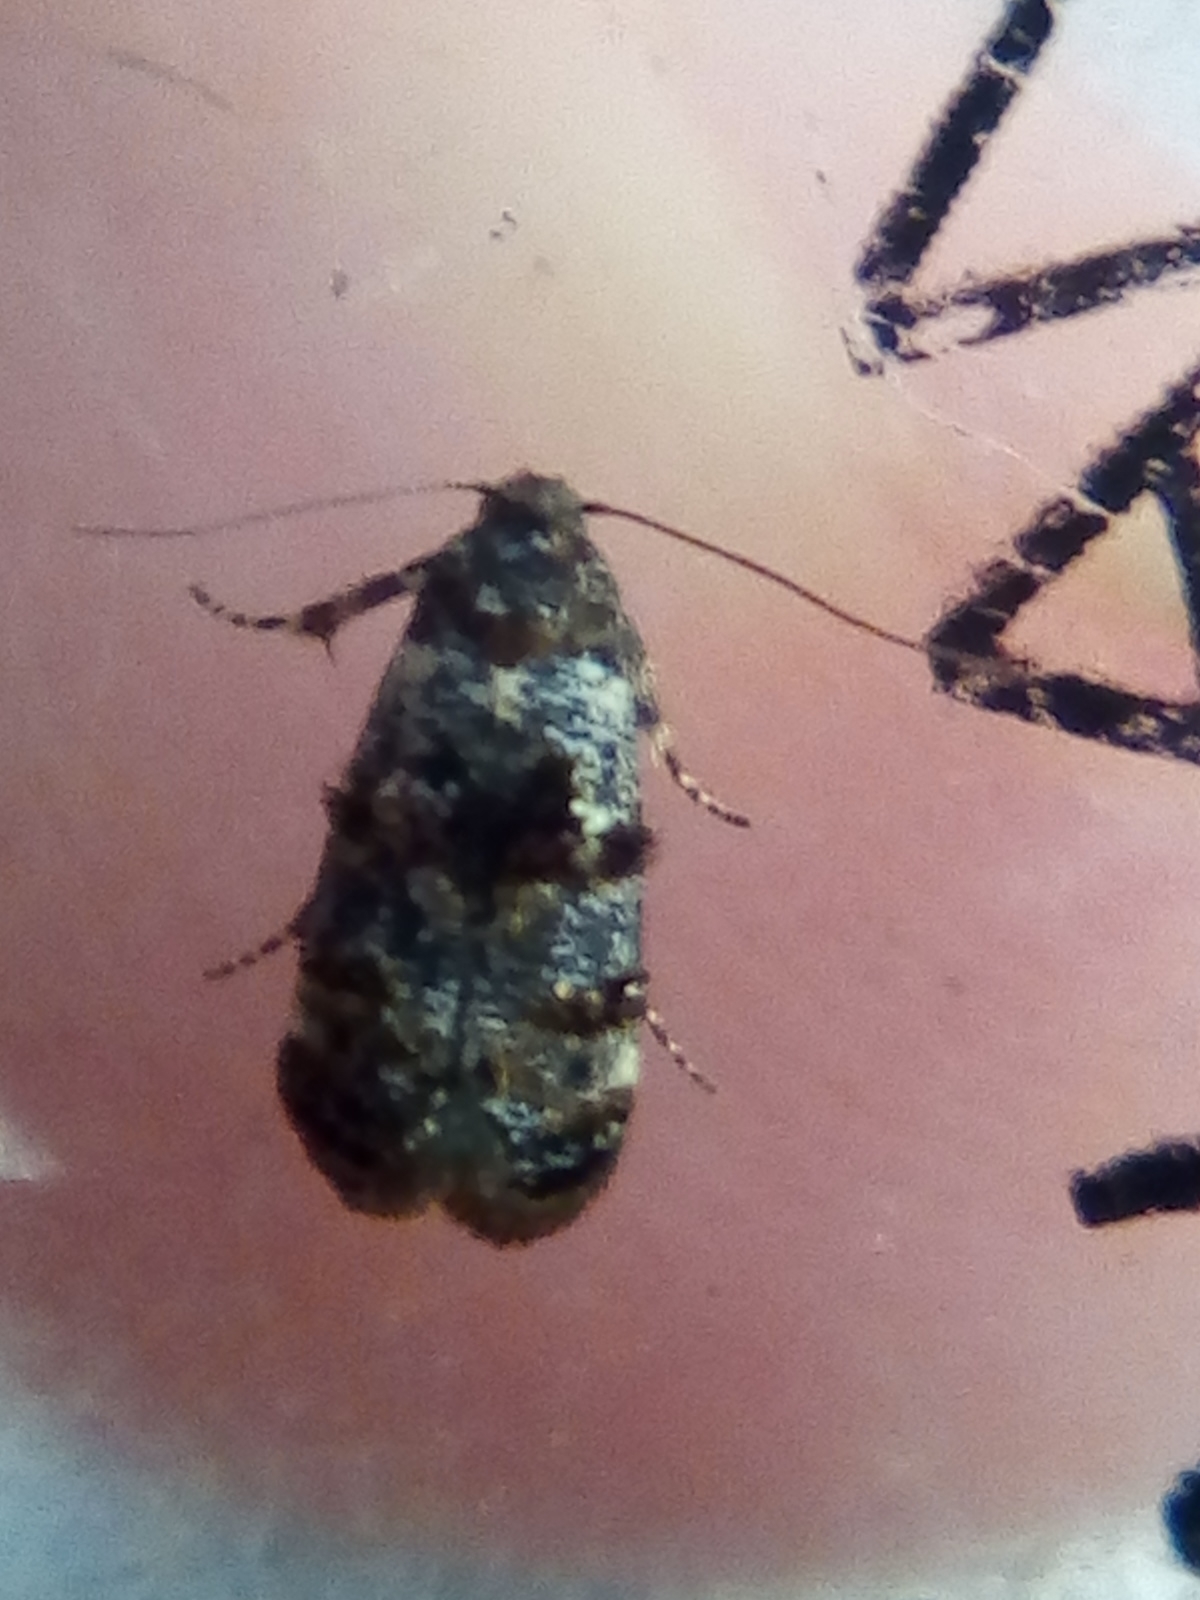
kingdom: Animalia
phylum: Arthropoda
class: Insecta
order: Lepidoptera
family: Oecophoridae
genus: Corocosma
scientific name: Corocosma memorabilis
